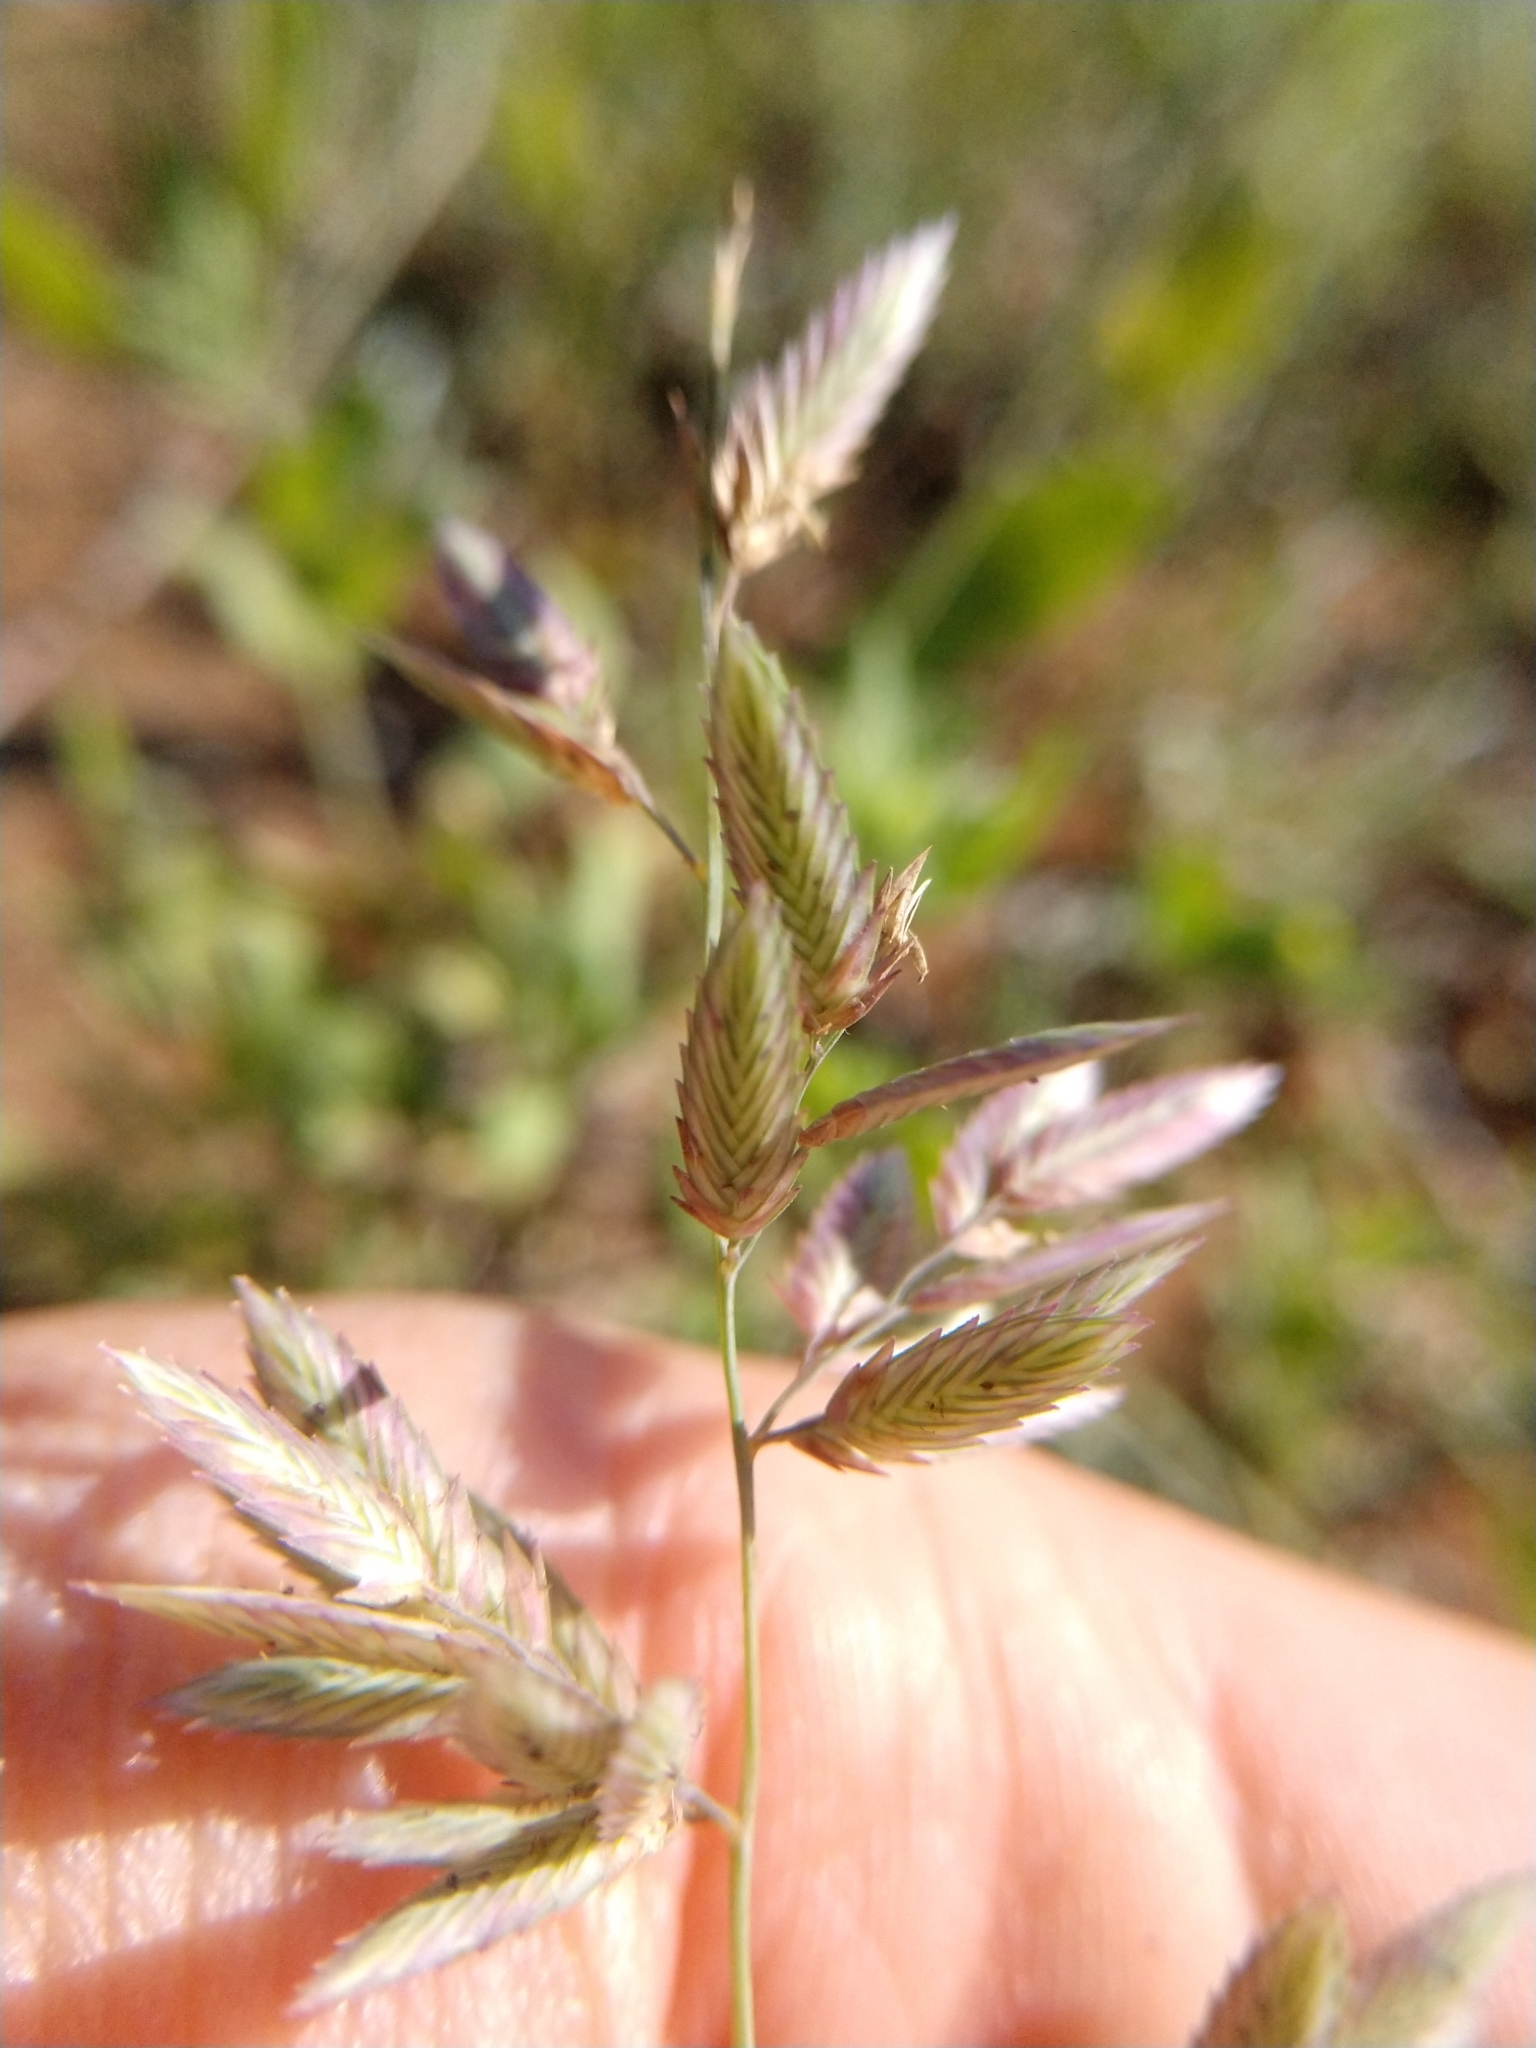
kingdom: Plantae
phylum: Tracheophyta
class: Liliopsida
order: Poales
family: Poaceae
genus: Eragrostis
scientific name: Eragrostis secundiflora
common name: Red love grass
